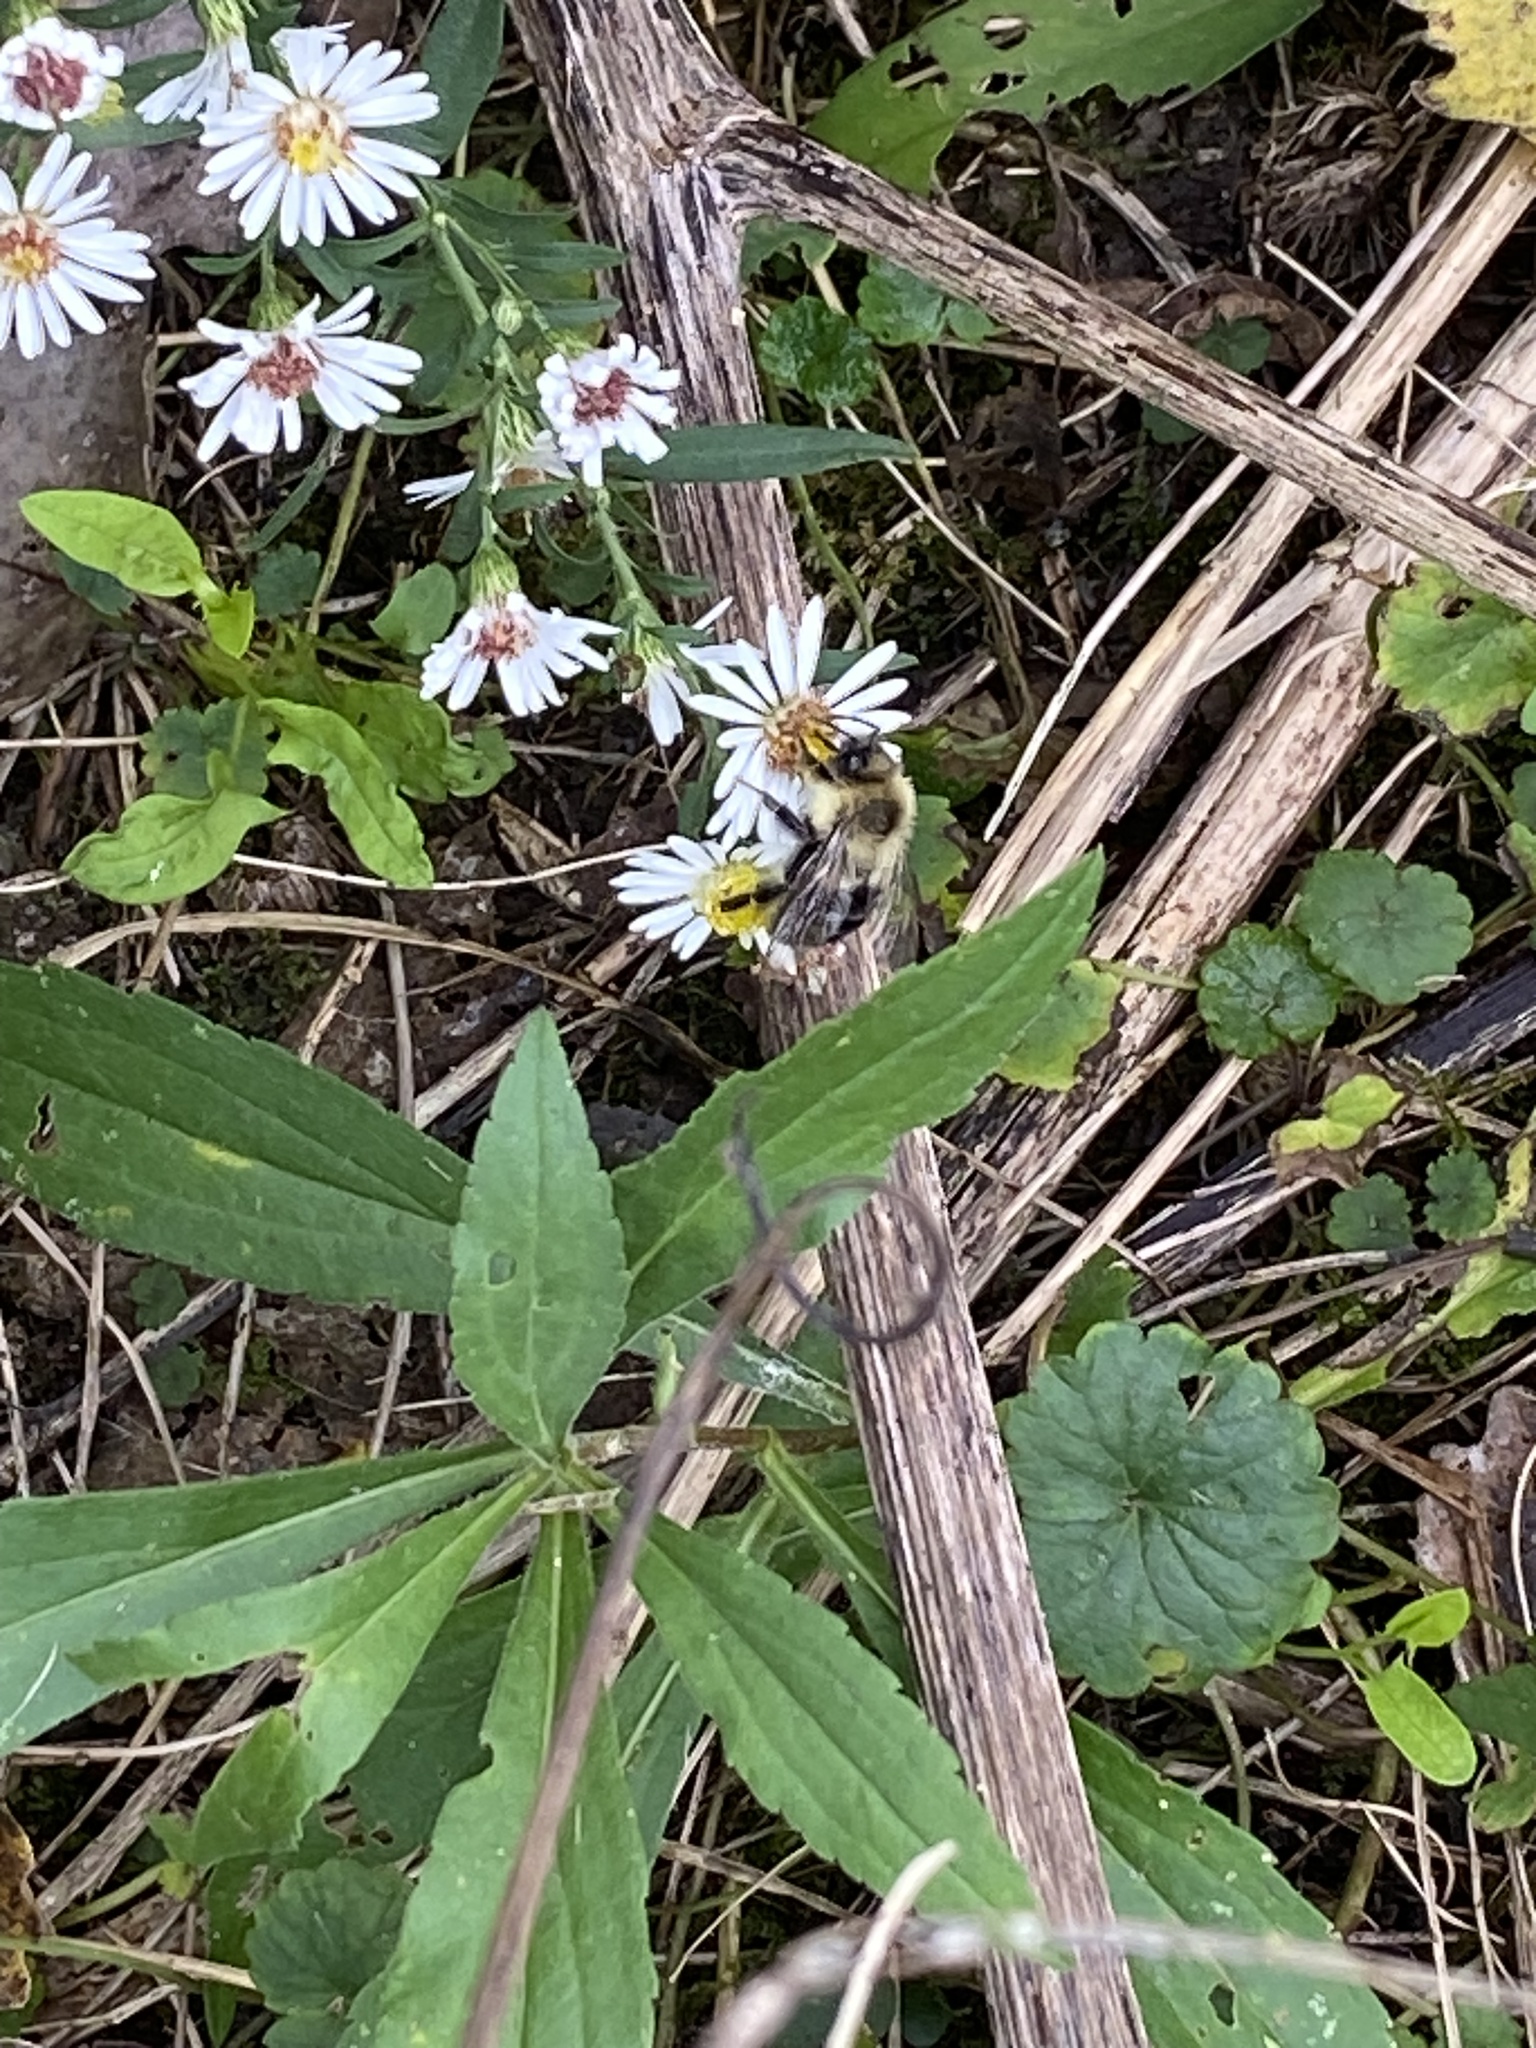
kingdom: Animalia
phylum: Arthropoda
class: Insecta
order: Hymenoptera
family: Apidae
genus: Bombus
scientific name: Bombus impatiens
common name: Common eastern bumble bee
